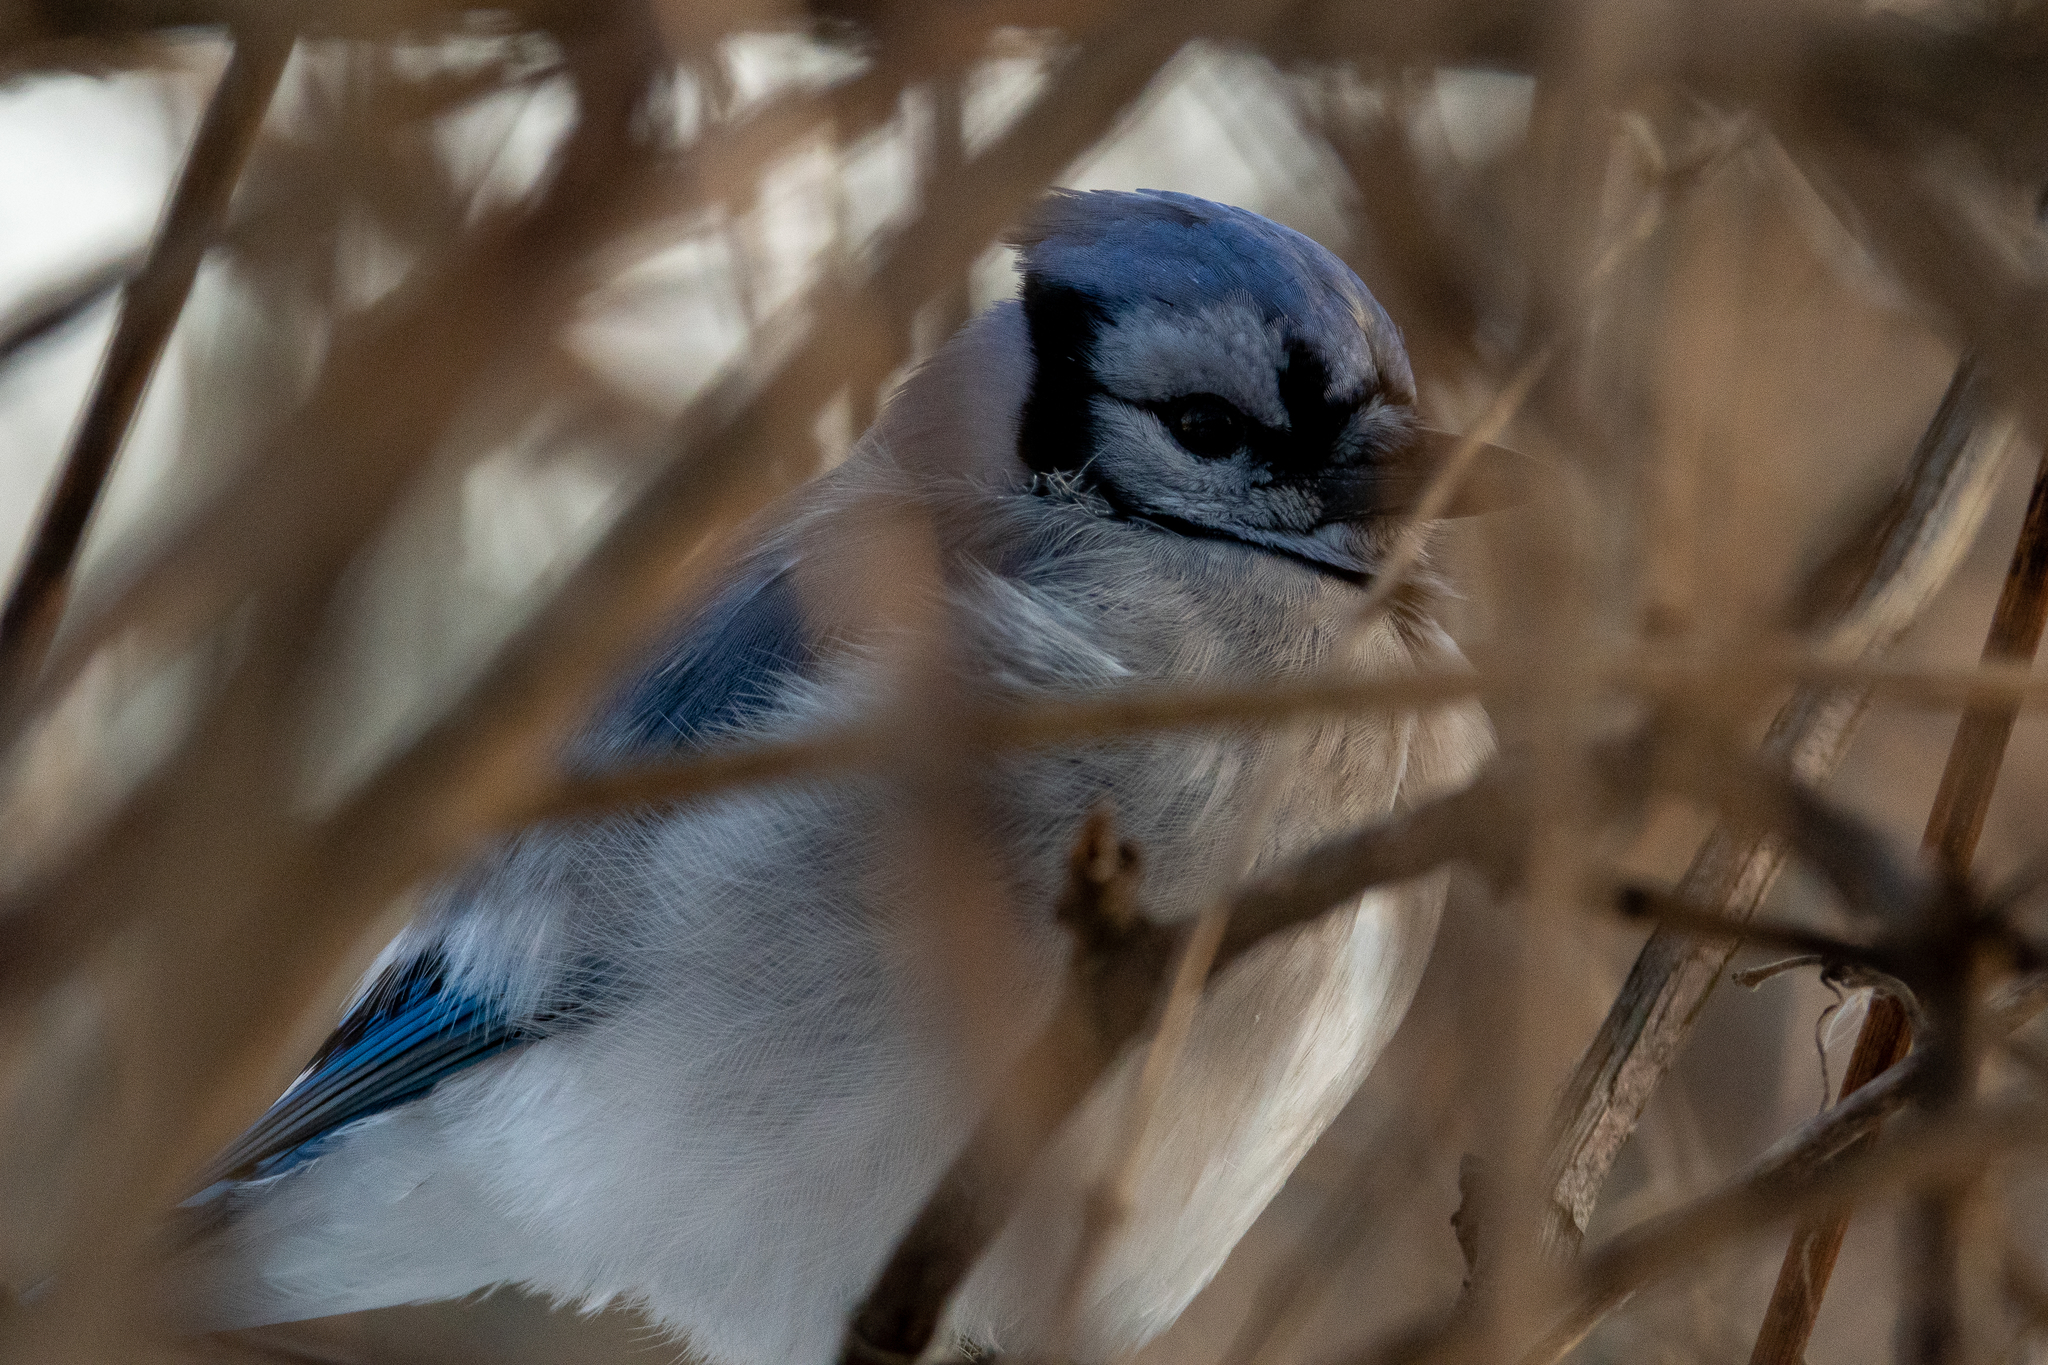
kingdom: Animalia
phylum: Chordata
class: Aves
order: Passeriformes
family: Corvidae
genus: Cyanocitta
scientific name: Cyanocitta cristata
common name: Blue jay
